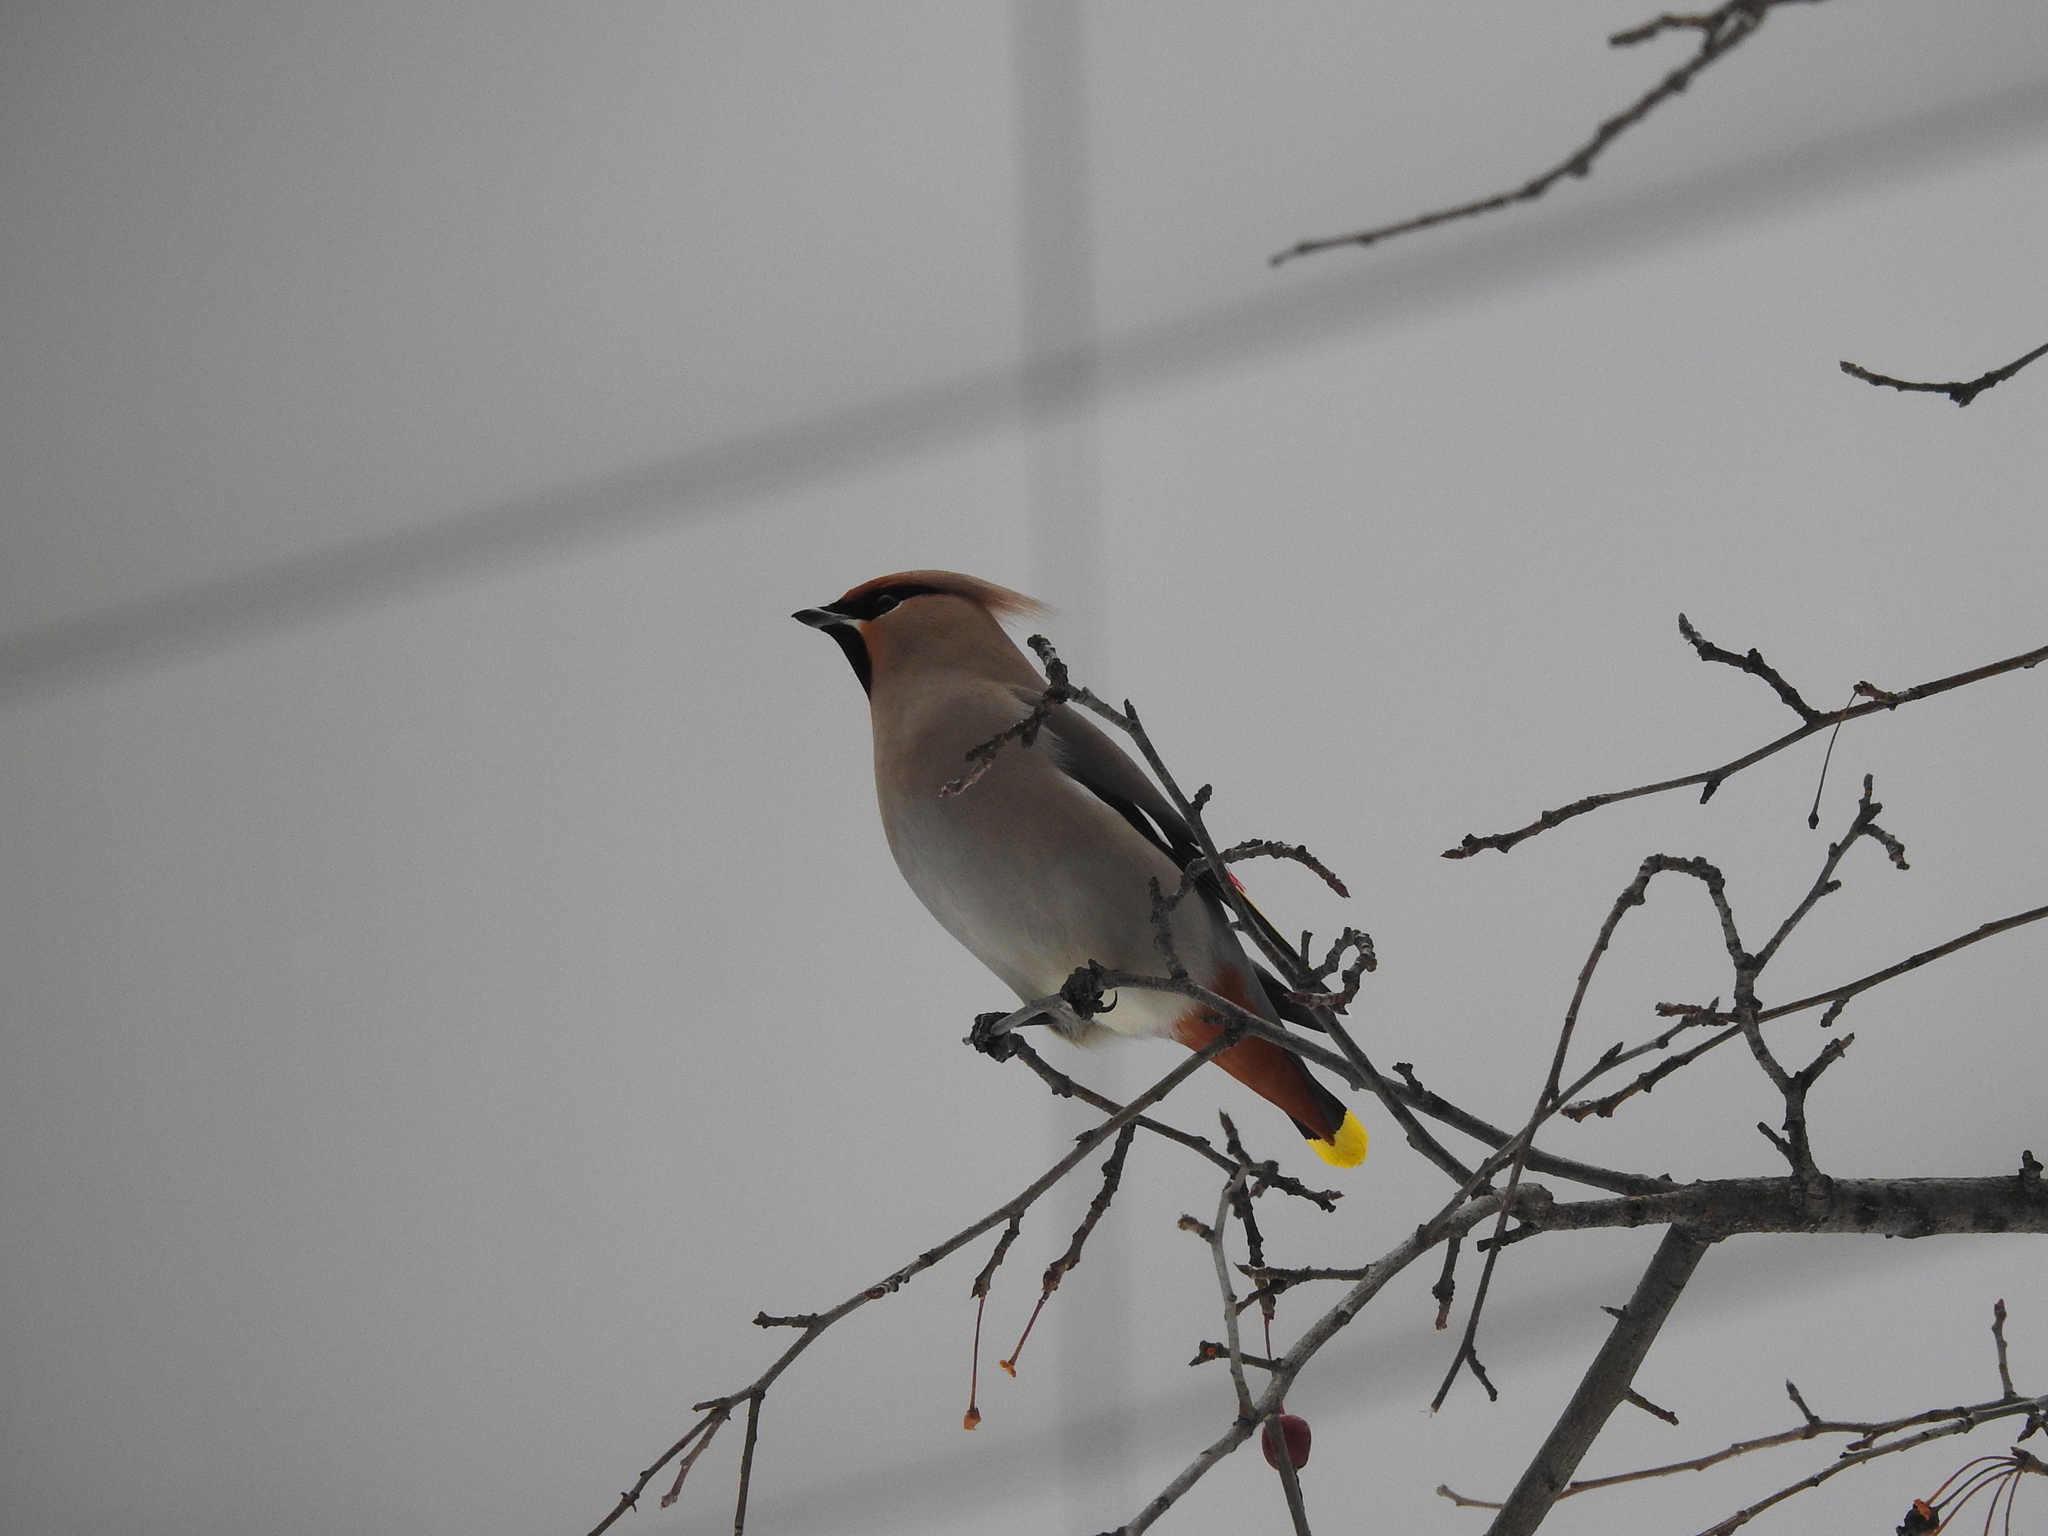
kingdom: Animalia
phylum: Chordata
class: Aves
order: Passeriformes
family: Bombycillidae
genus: Bombycilla
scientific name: Bombycilla garrulus
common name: Bohemian waxwing
